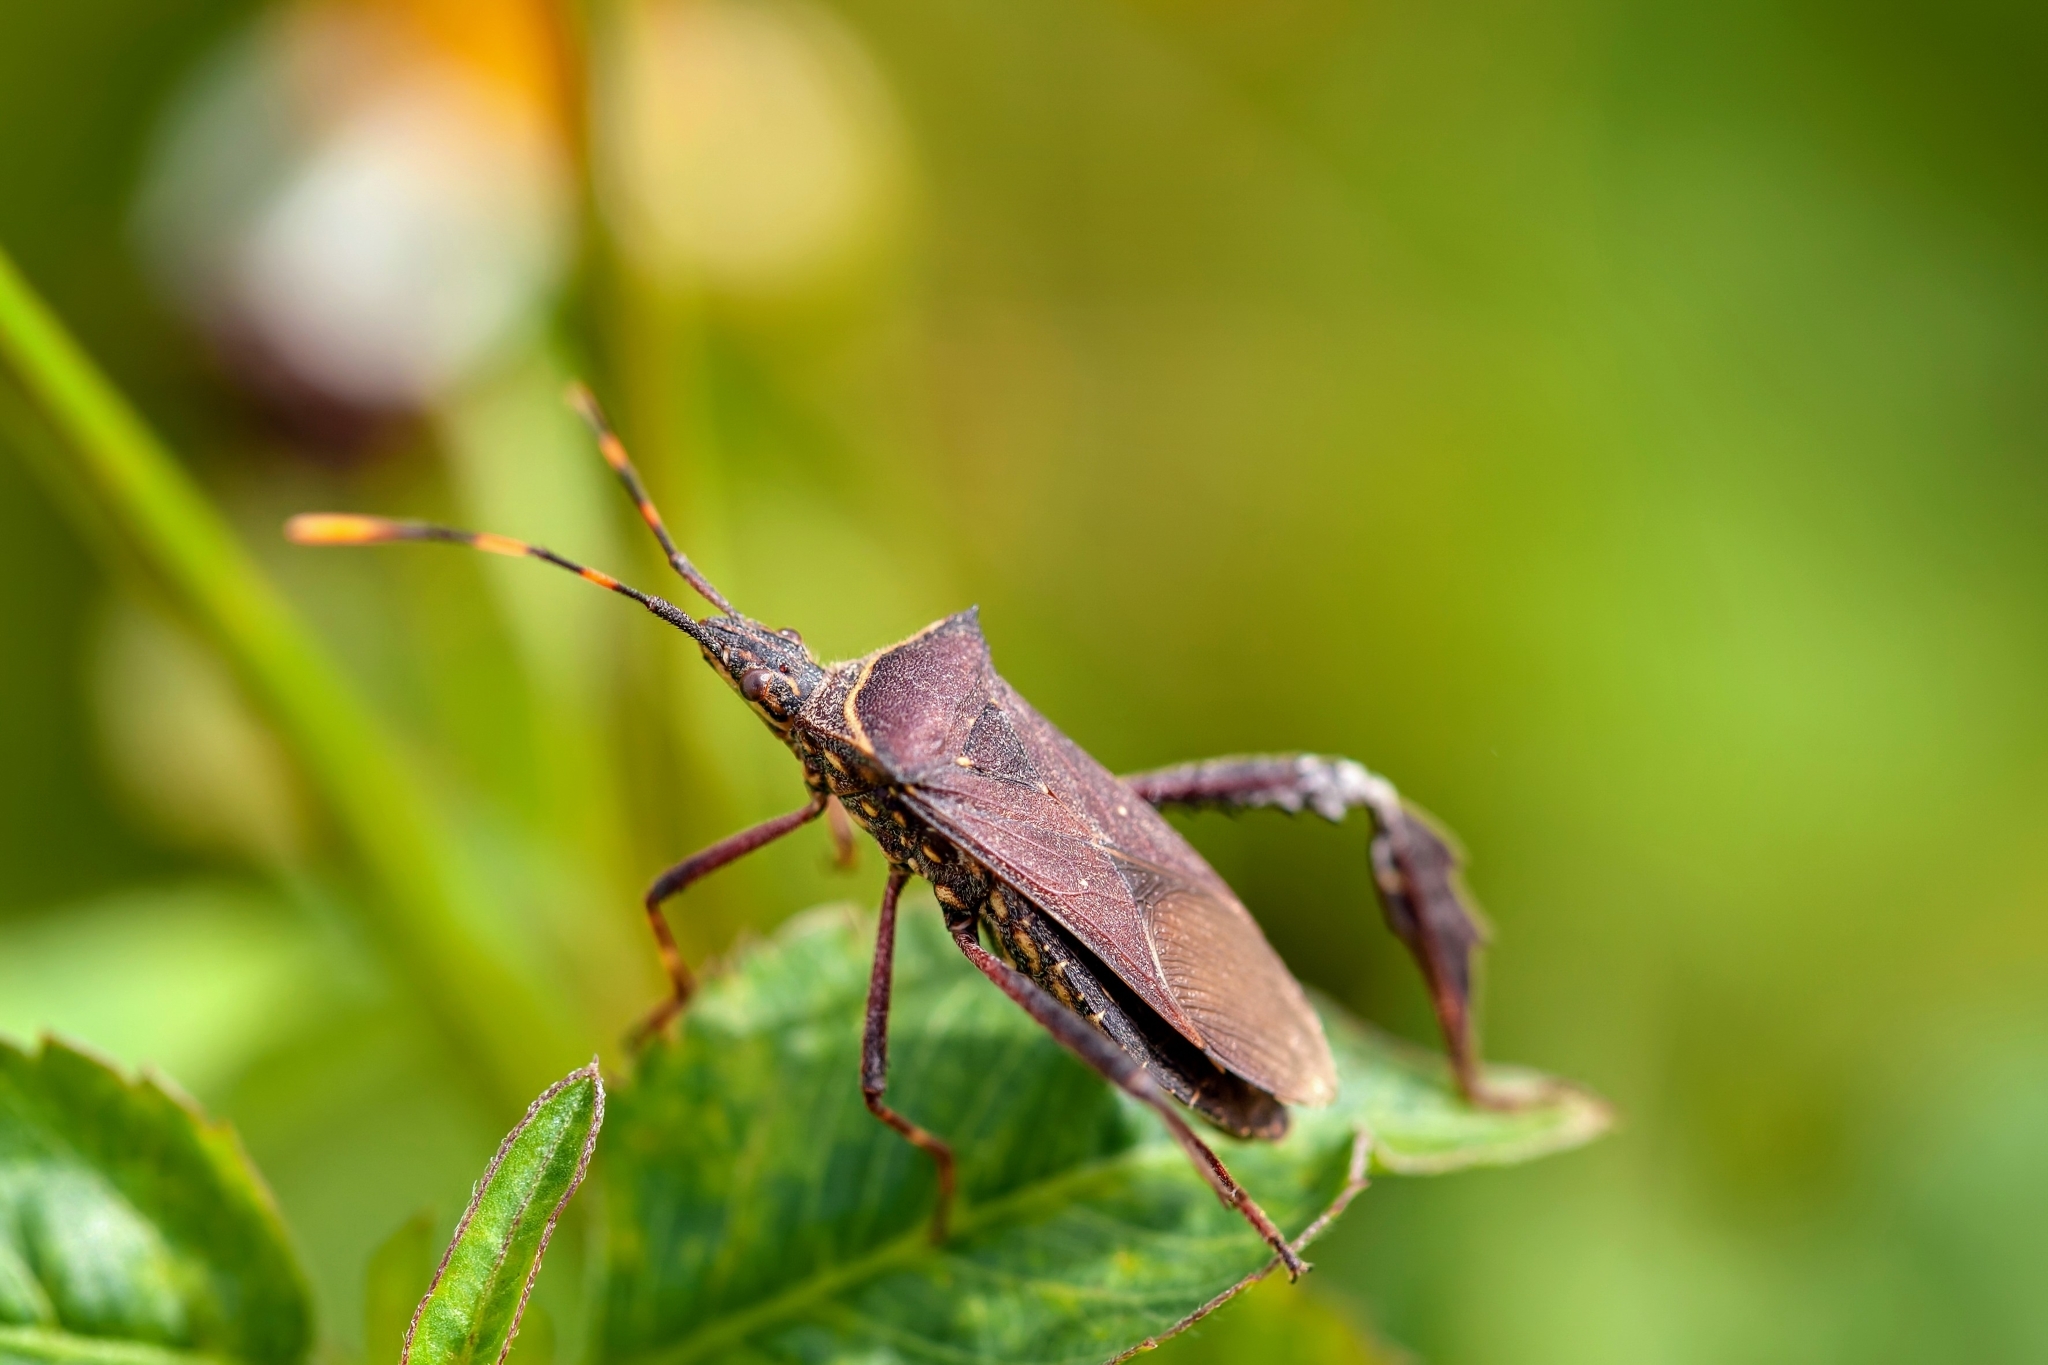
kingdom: Animalia
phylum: Arthropoda
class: Insecta
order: Hemiptera
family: Coreidae
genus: Leptoglossus
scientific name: Leptoglossus gonagra
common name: Citron bug
